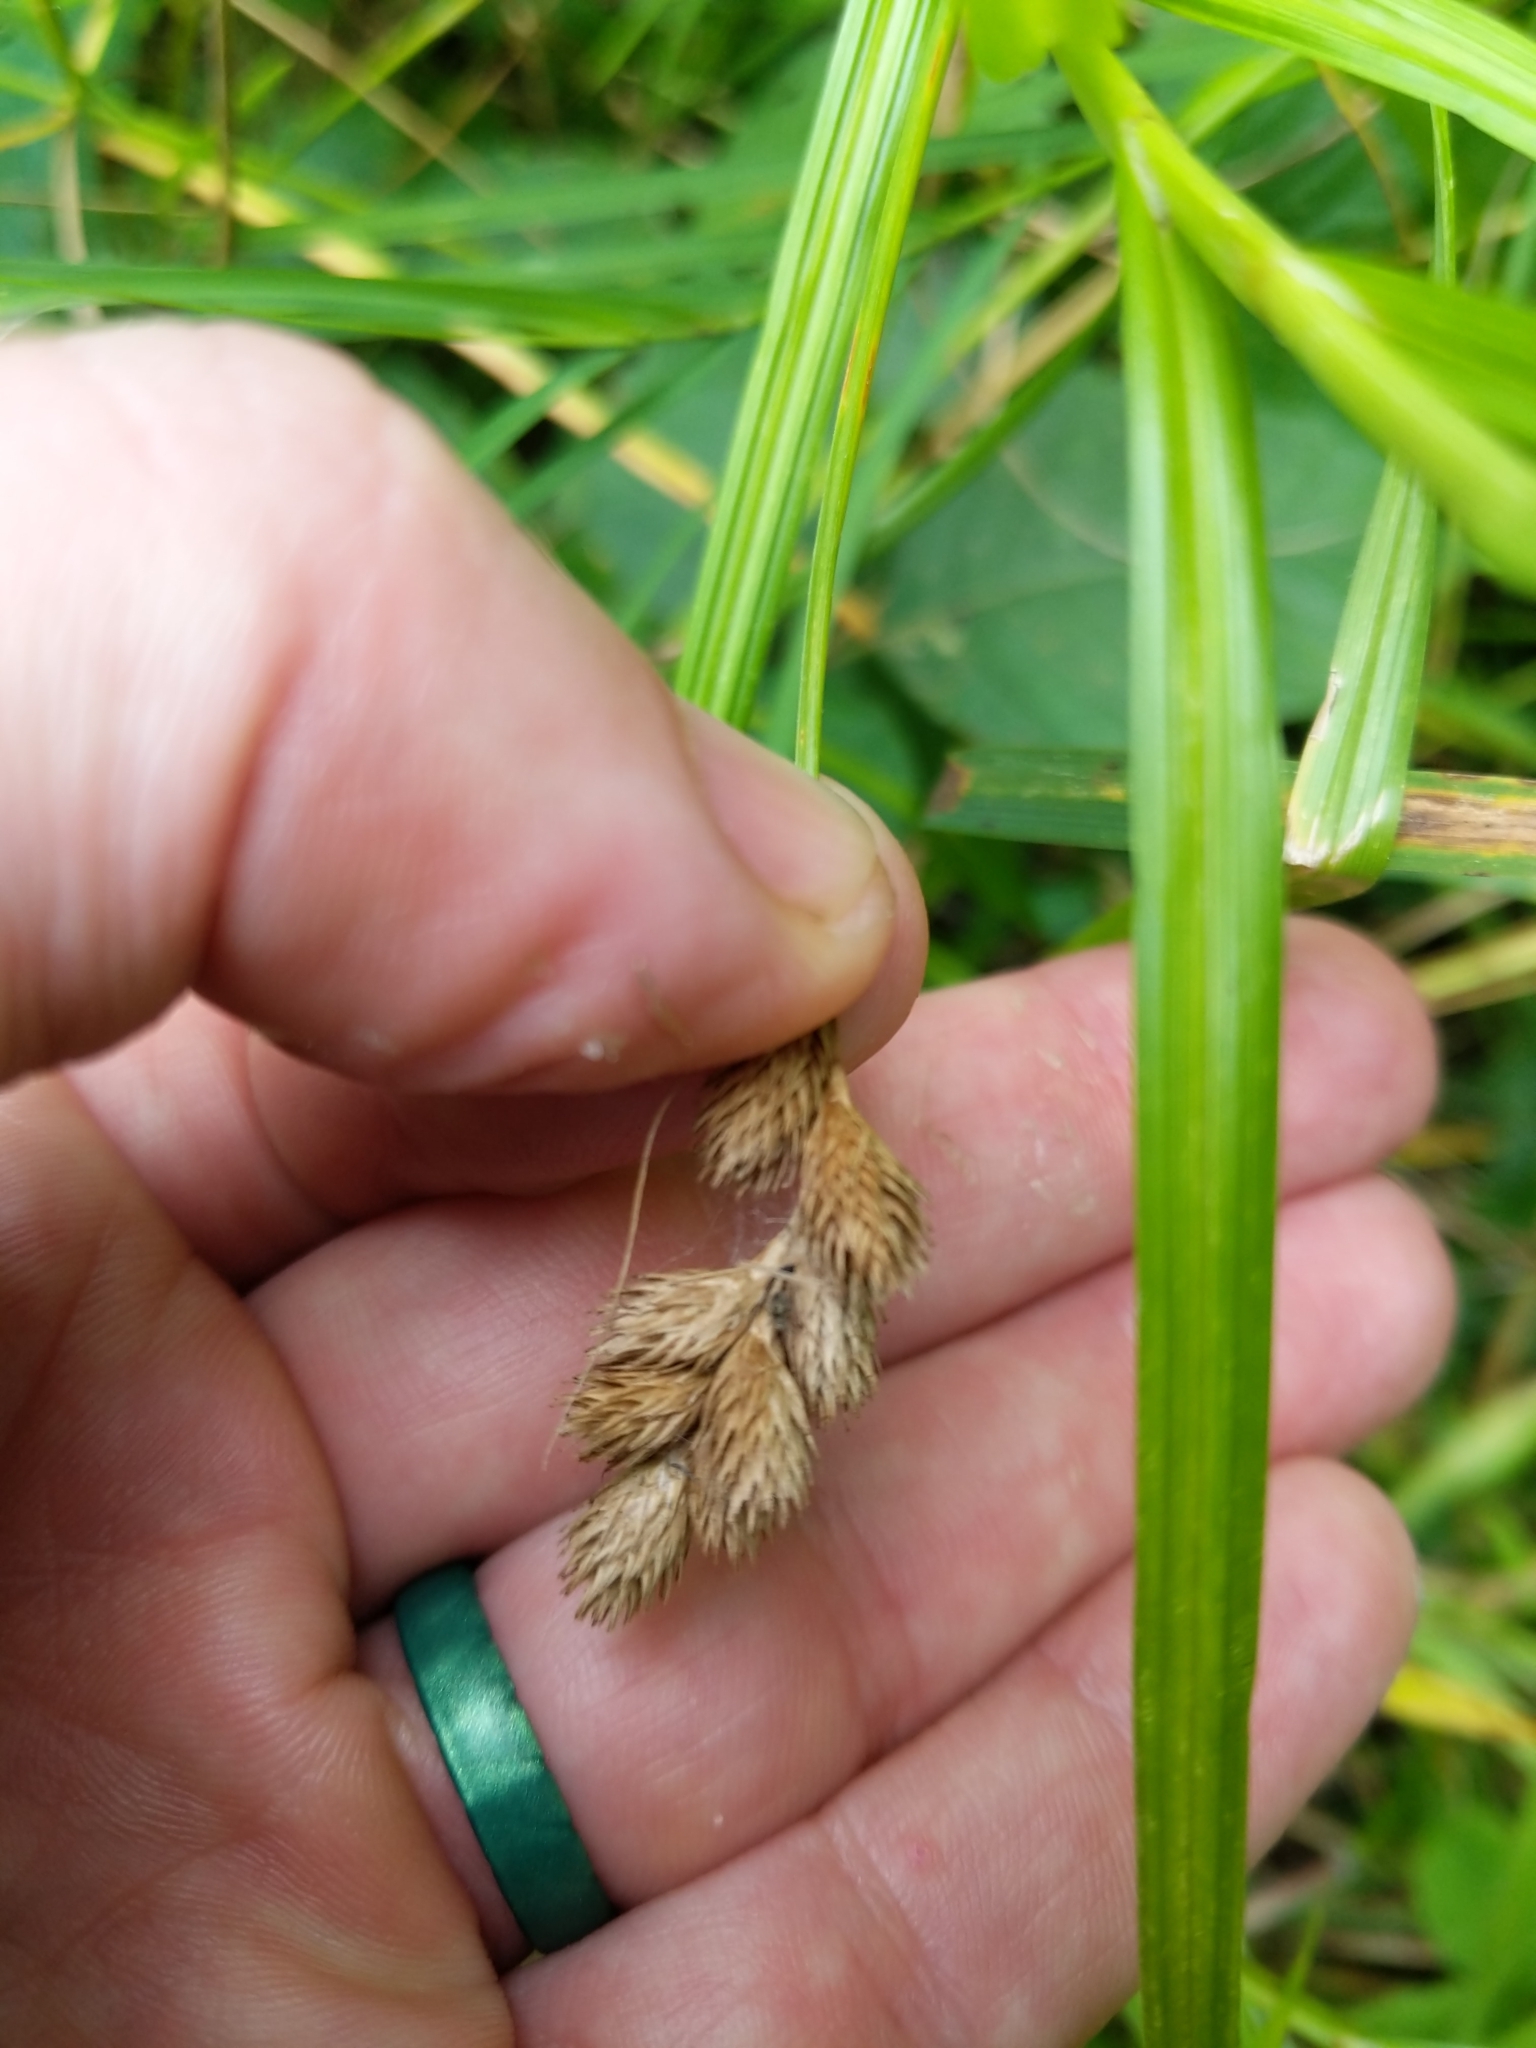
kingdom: Plantae
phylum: Tracheophyta
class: Liliopsida
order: Poales
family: Cyperaceae
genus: Carex
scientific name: Carex tribuloides
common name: Blunt broom sedge
